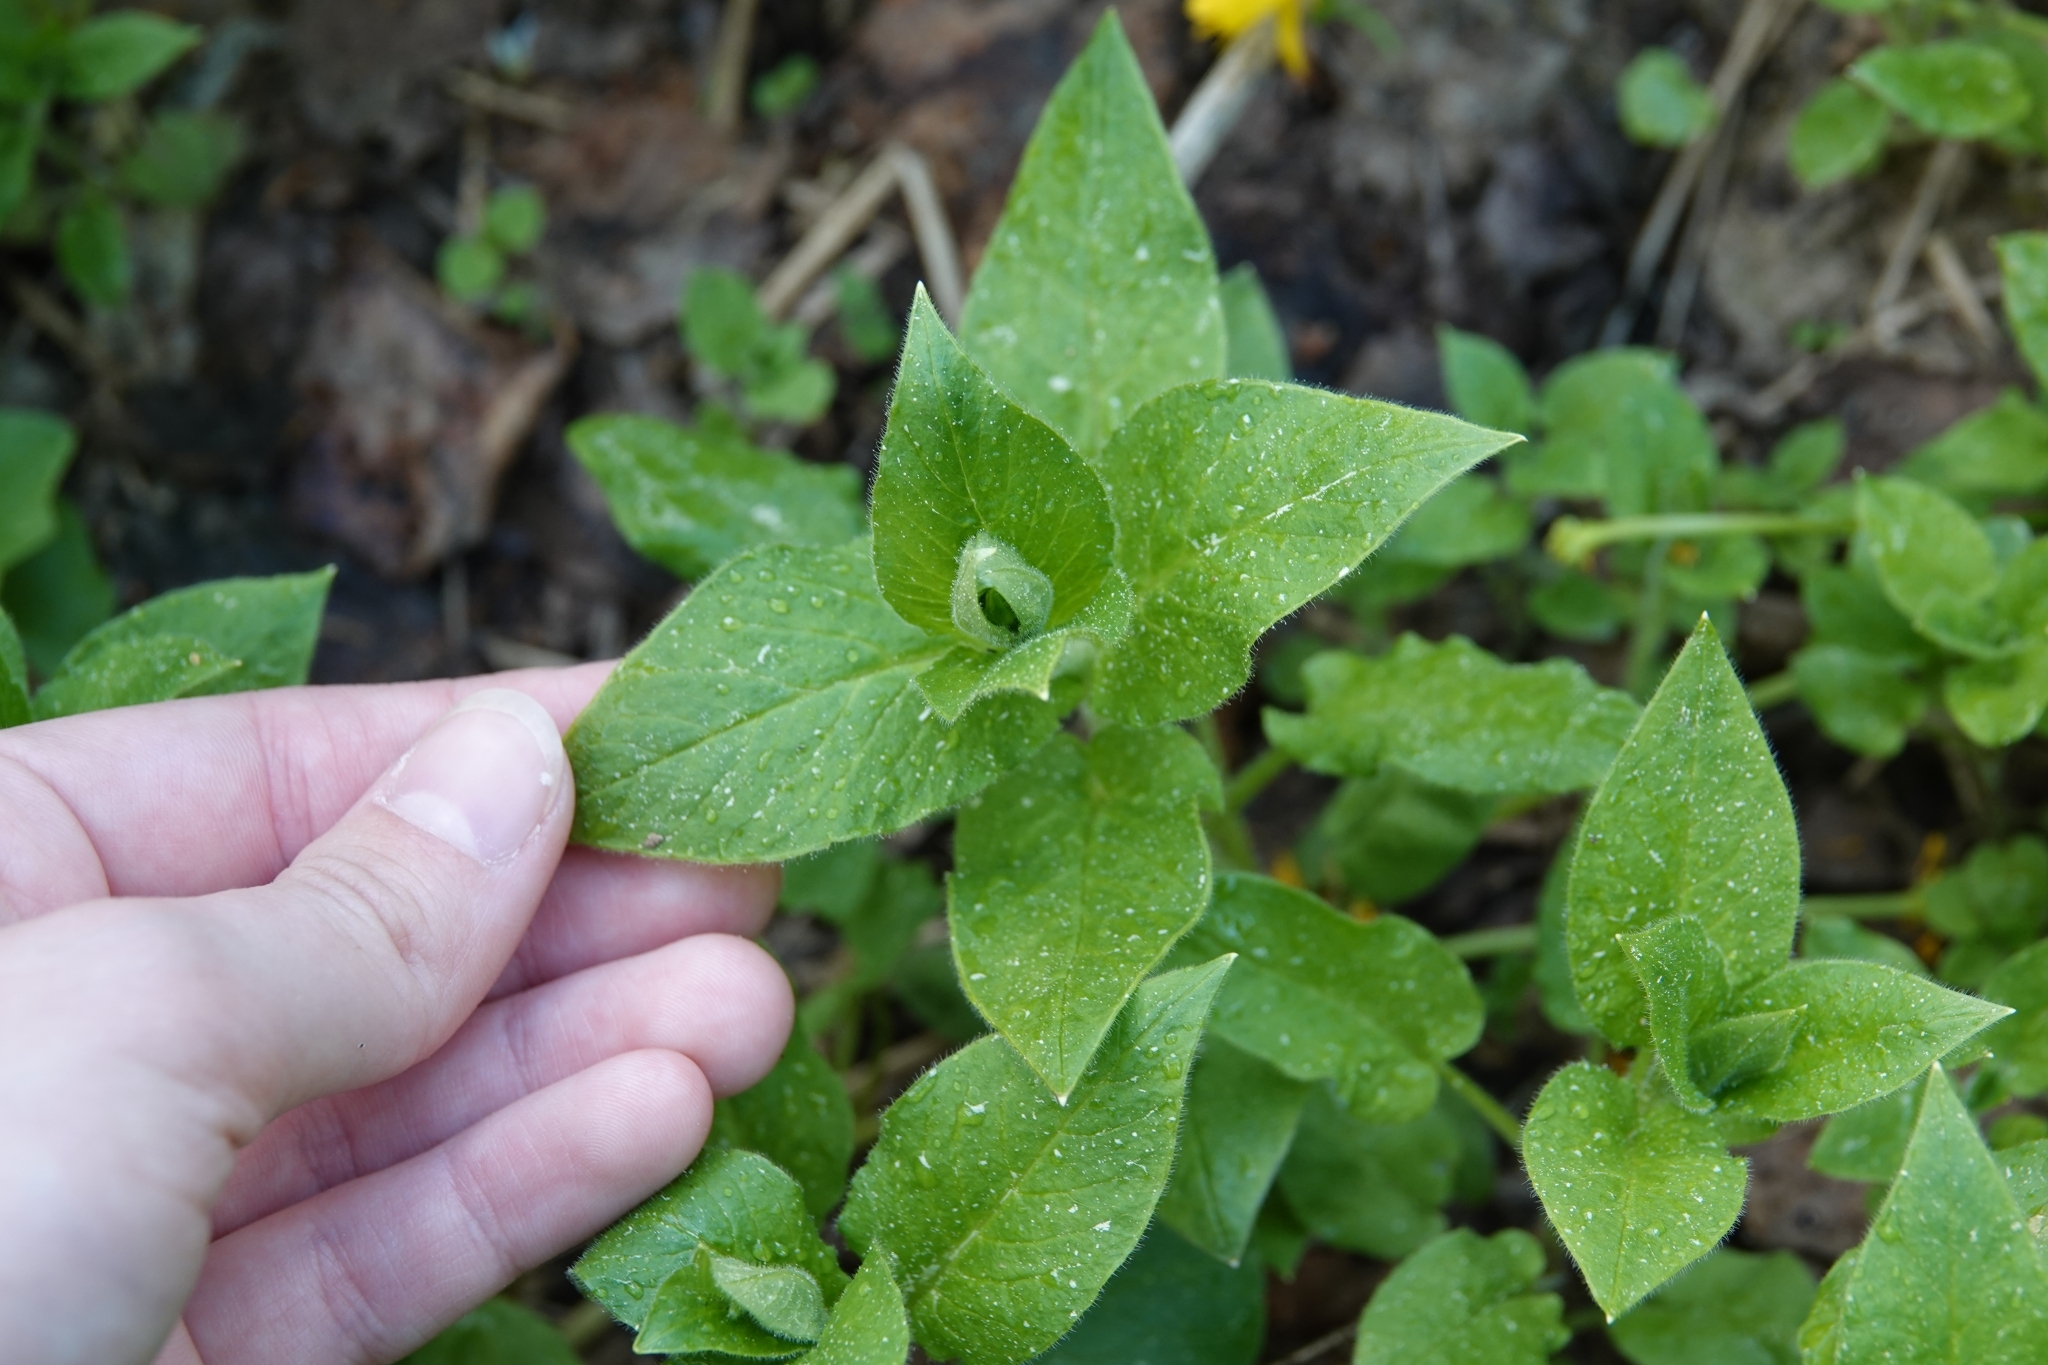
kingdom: Plantae
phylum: Tracheophyta
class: Magnoliopsida
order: Caryophyllales
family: Caryophyllaceae
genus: Stellaria
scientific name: Stellaria nemorum
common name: Wood stitchwort
